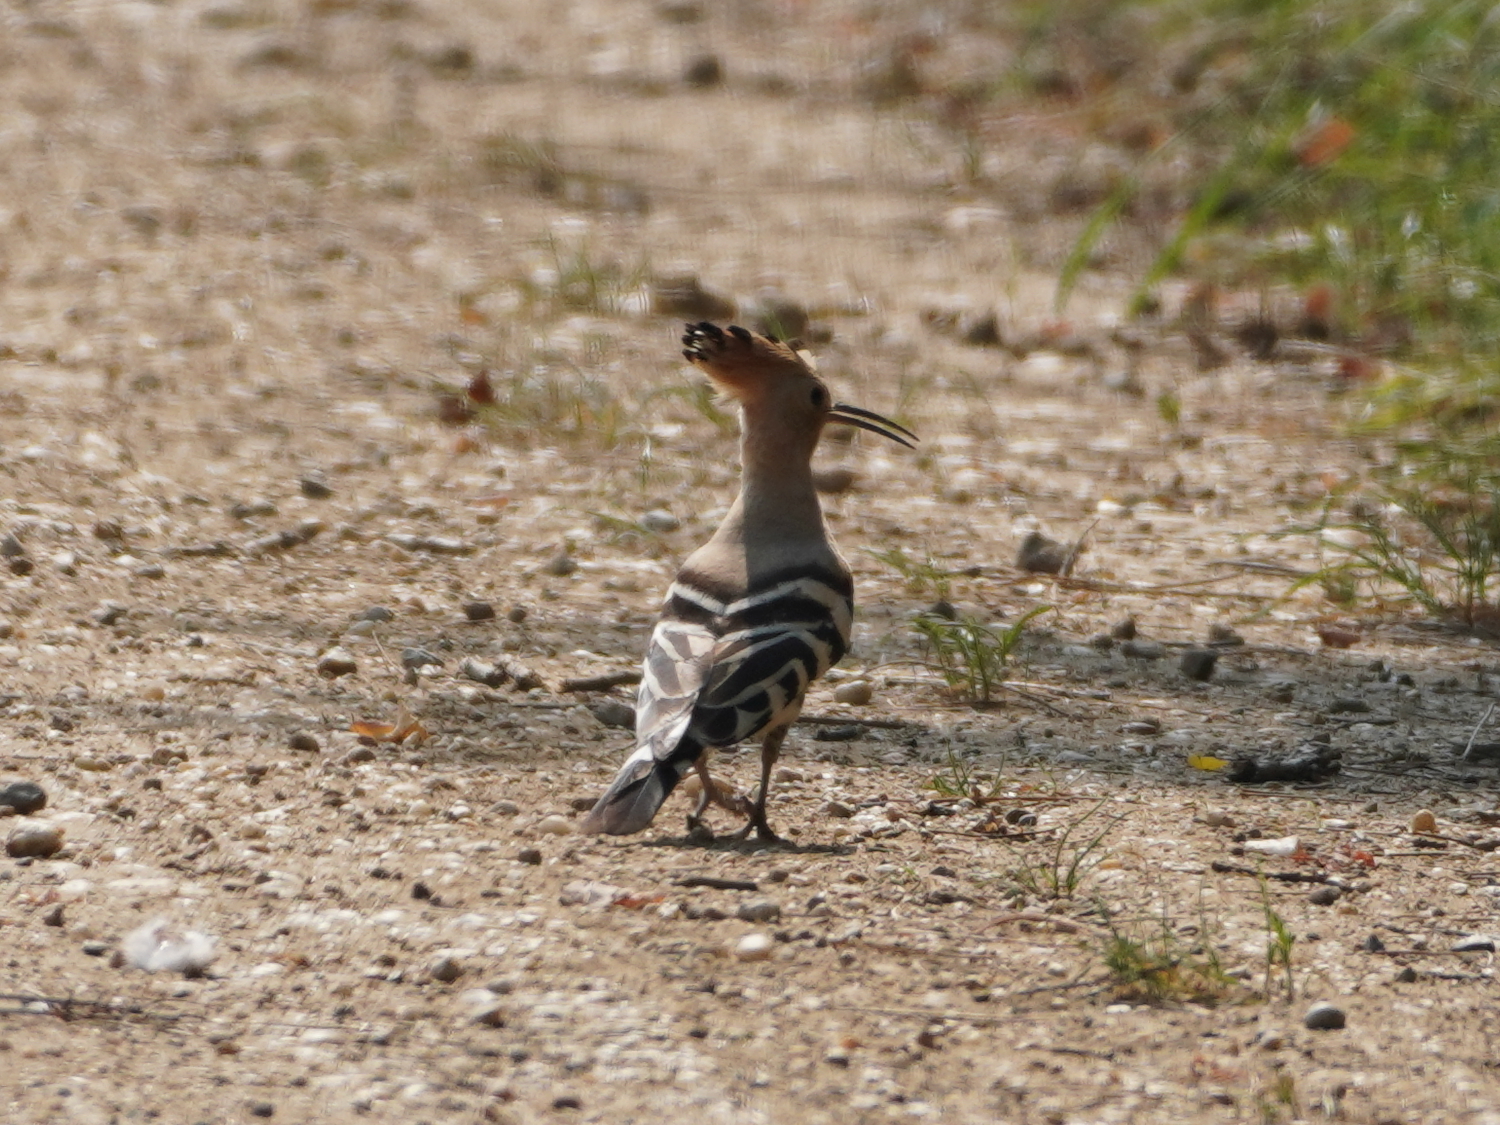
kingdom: Animalia
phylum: Chordata
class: Aves
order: Bucerotiformes
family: Upupidae
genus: Upupa
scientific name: Upupa epops
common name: Eurasian hoopoe
